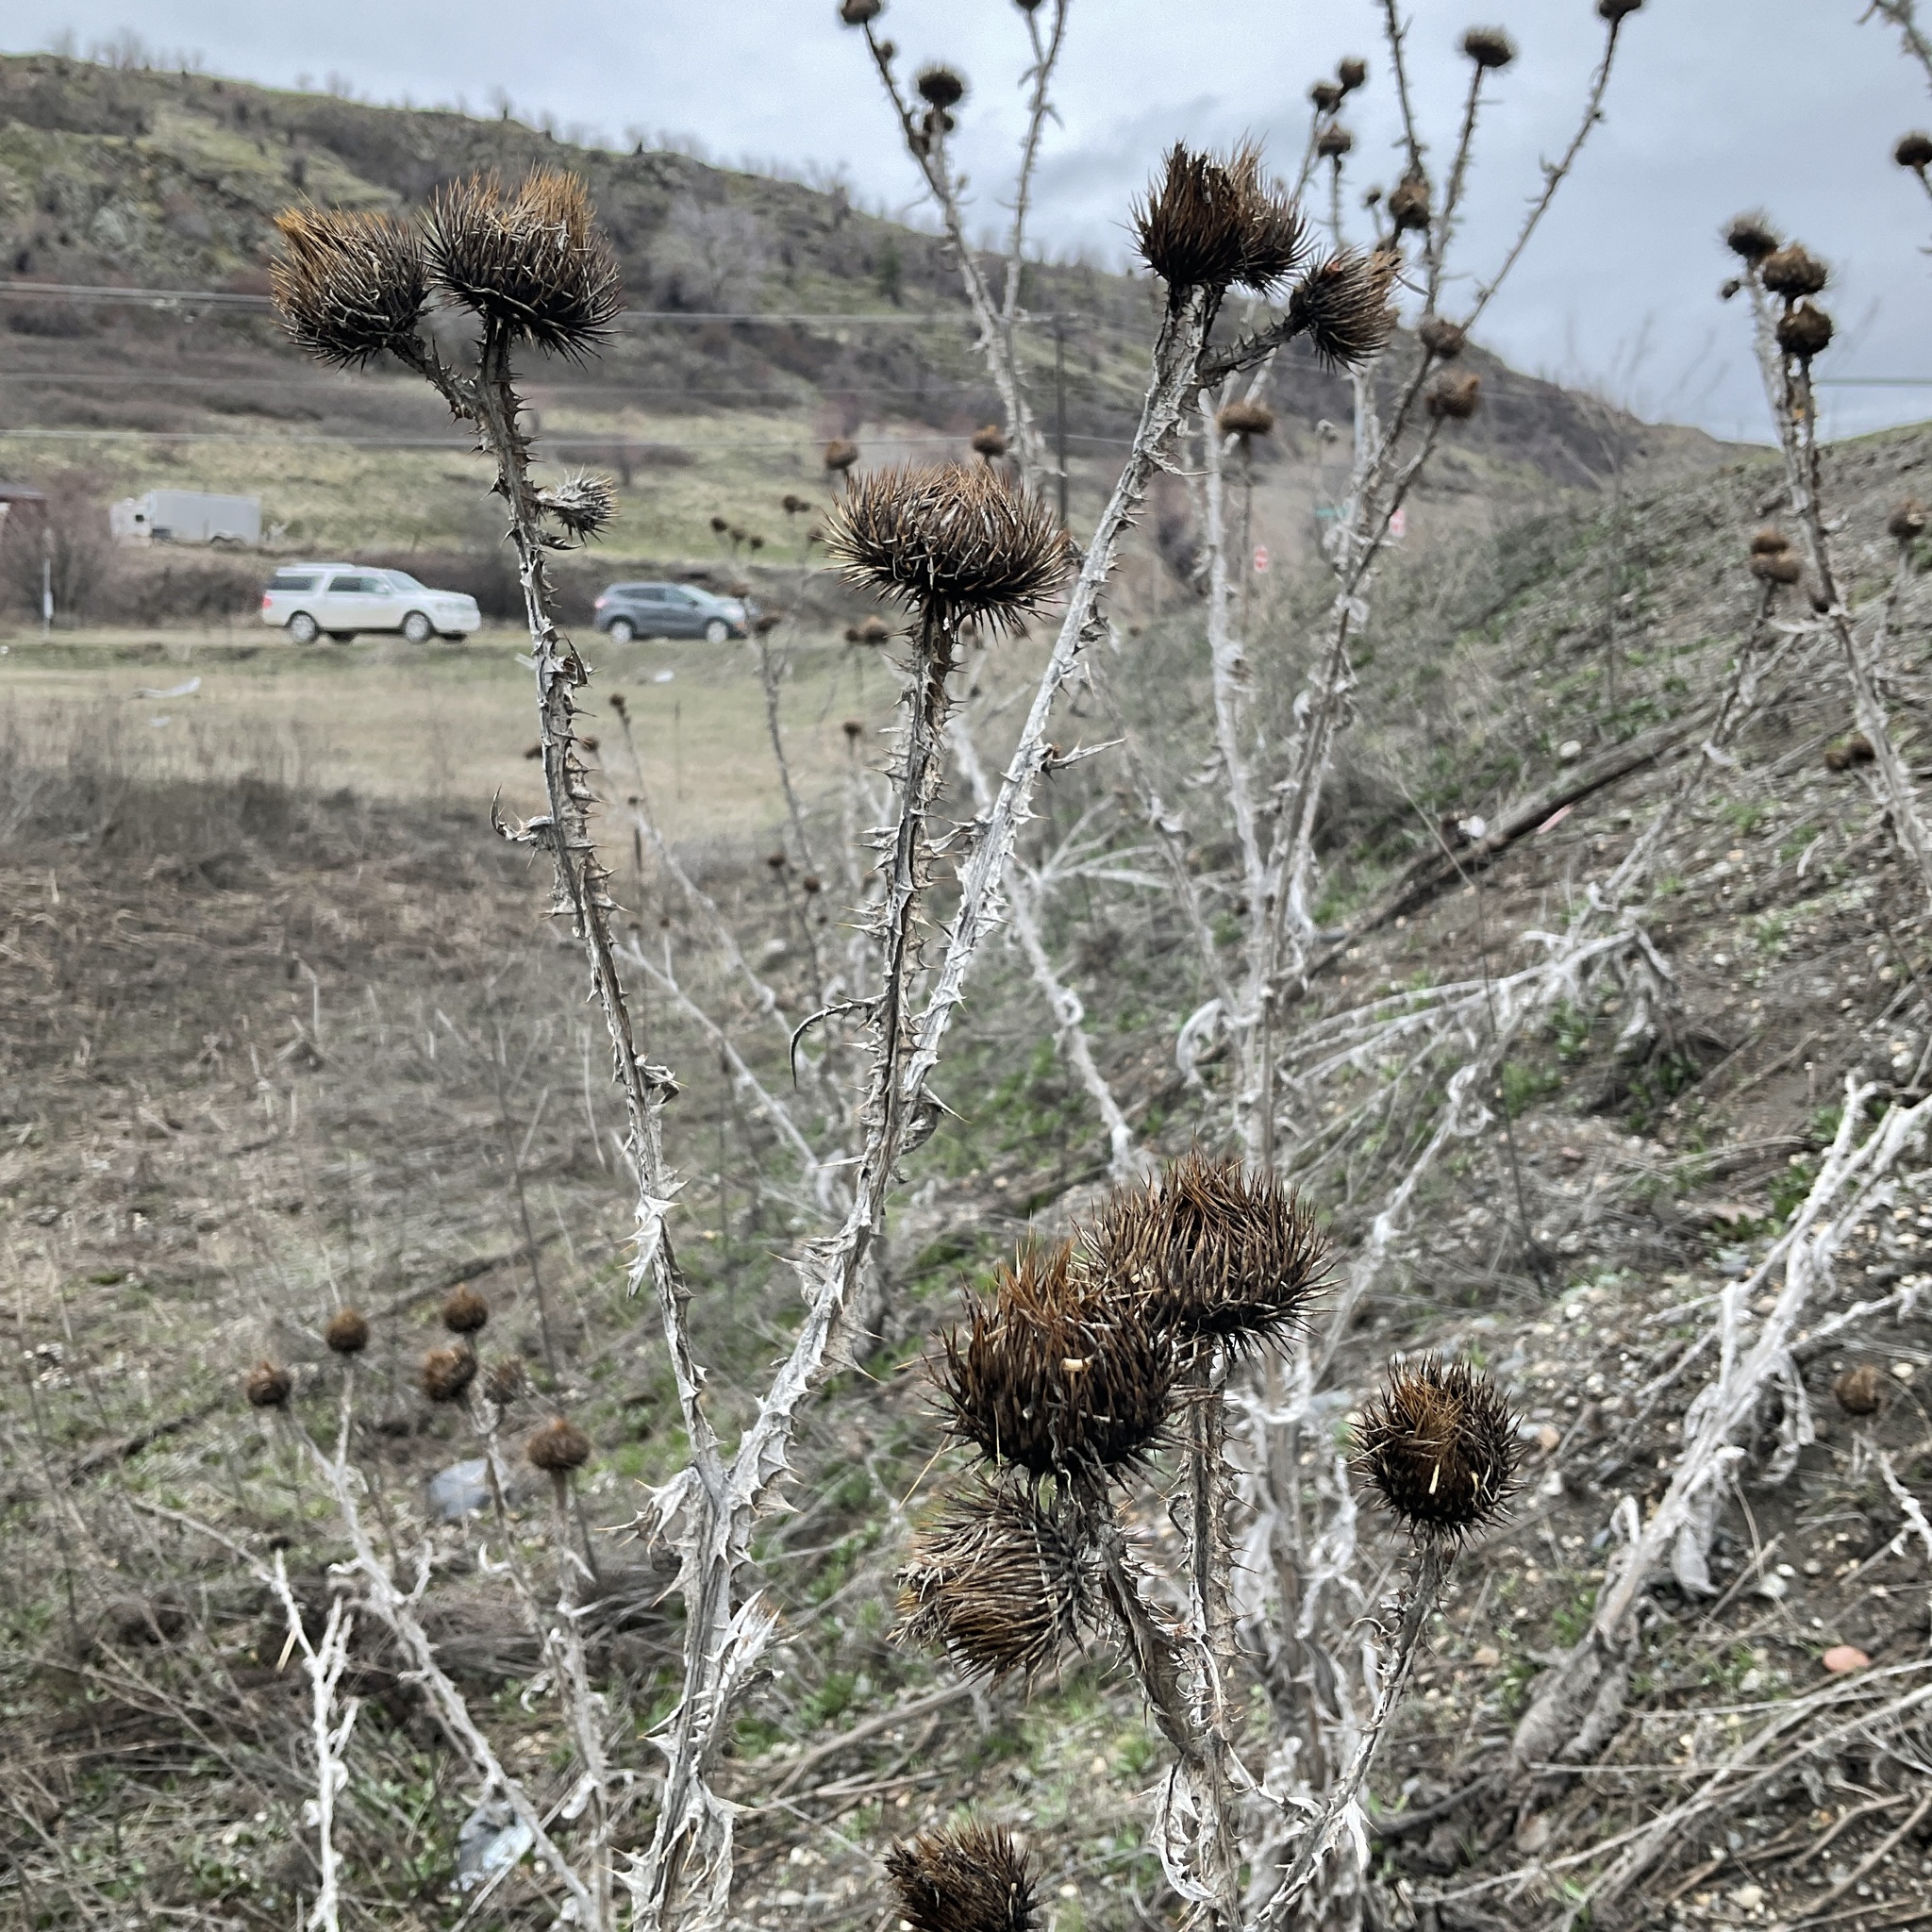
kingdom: Plantae
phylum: Tracheophyta
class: Magnoliopsida
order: Asterales
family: Asteraceae
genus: Onopordum
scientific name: Onopordum acanthium
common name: Scotch thistle
